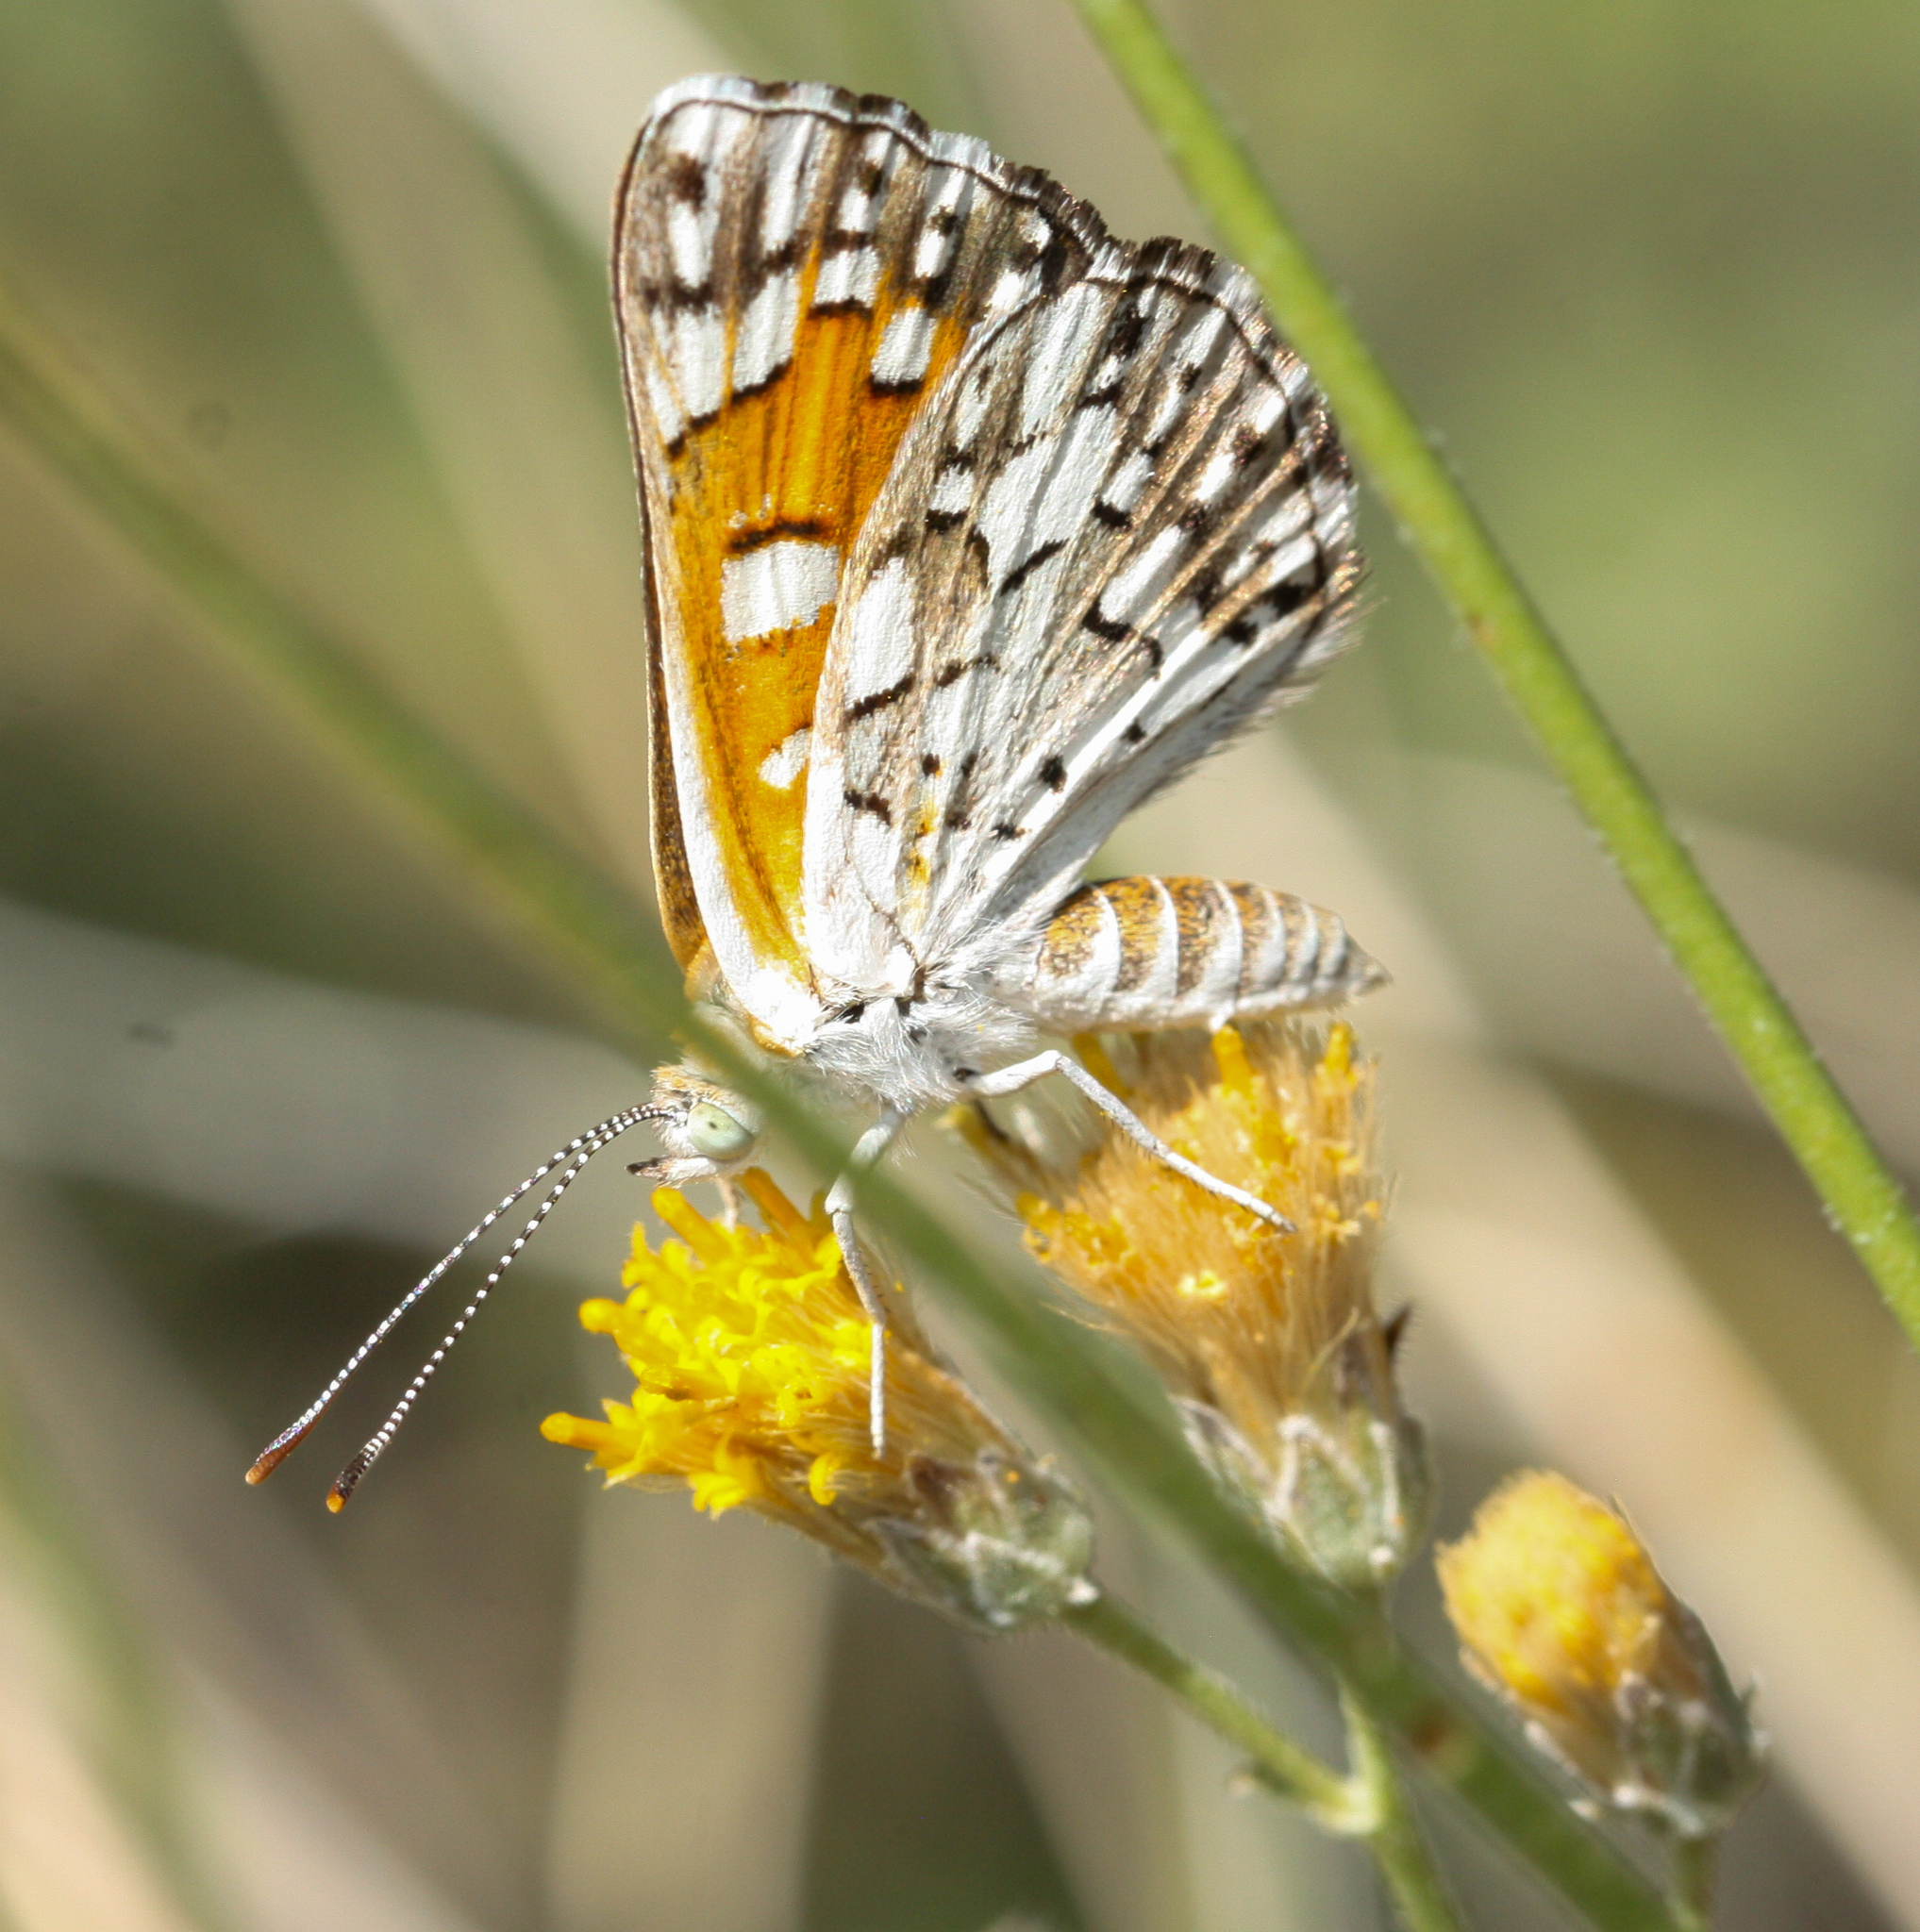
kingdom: Animalia
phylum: Arthropoda
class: Insecta
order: Lepidoptera
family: Riodinidae
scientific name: Riodinidae
